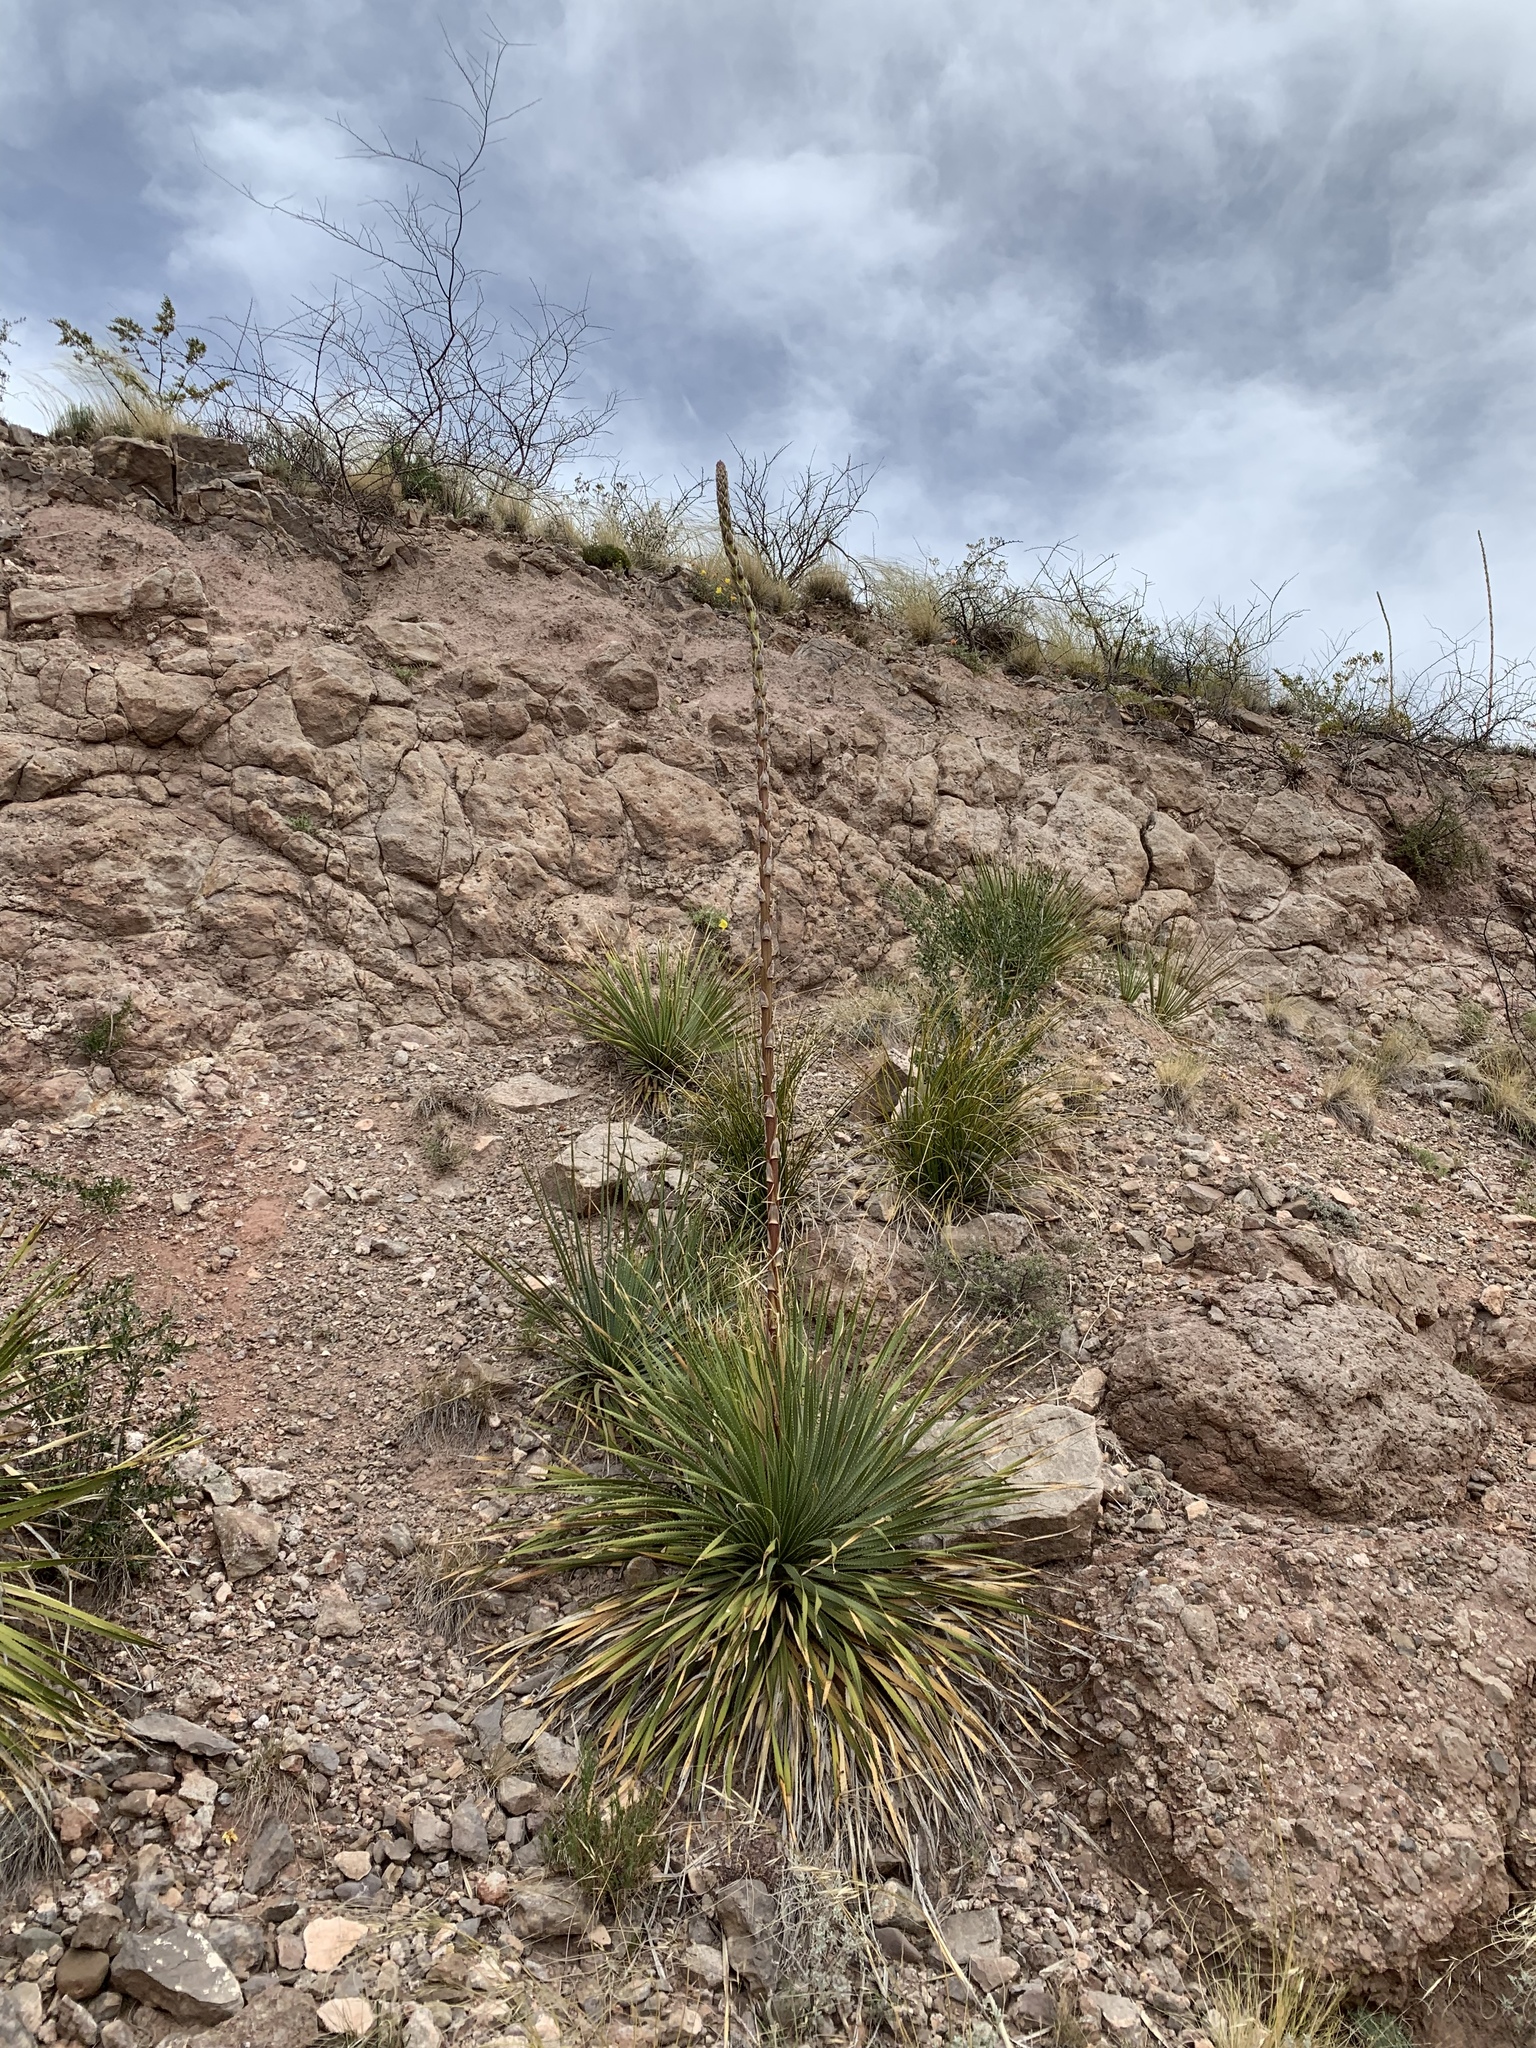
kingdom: Plantae
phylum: Tracheophyta
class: Liliopsida
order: Asparagales
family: Asparagaceae
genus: Dasylirion
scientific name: Dasylirion wheeleri
